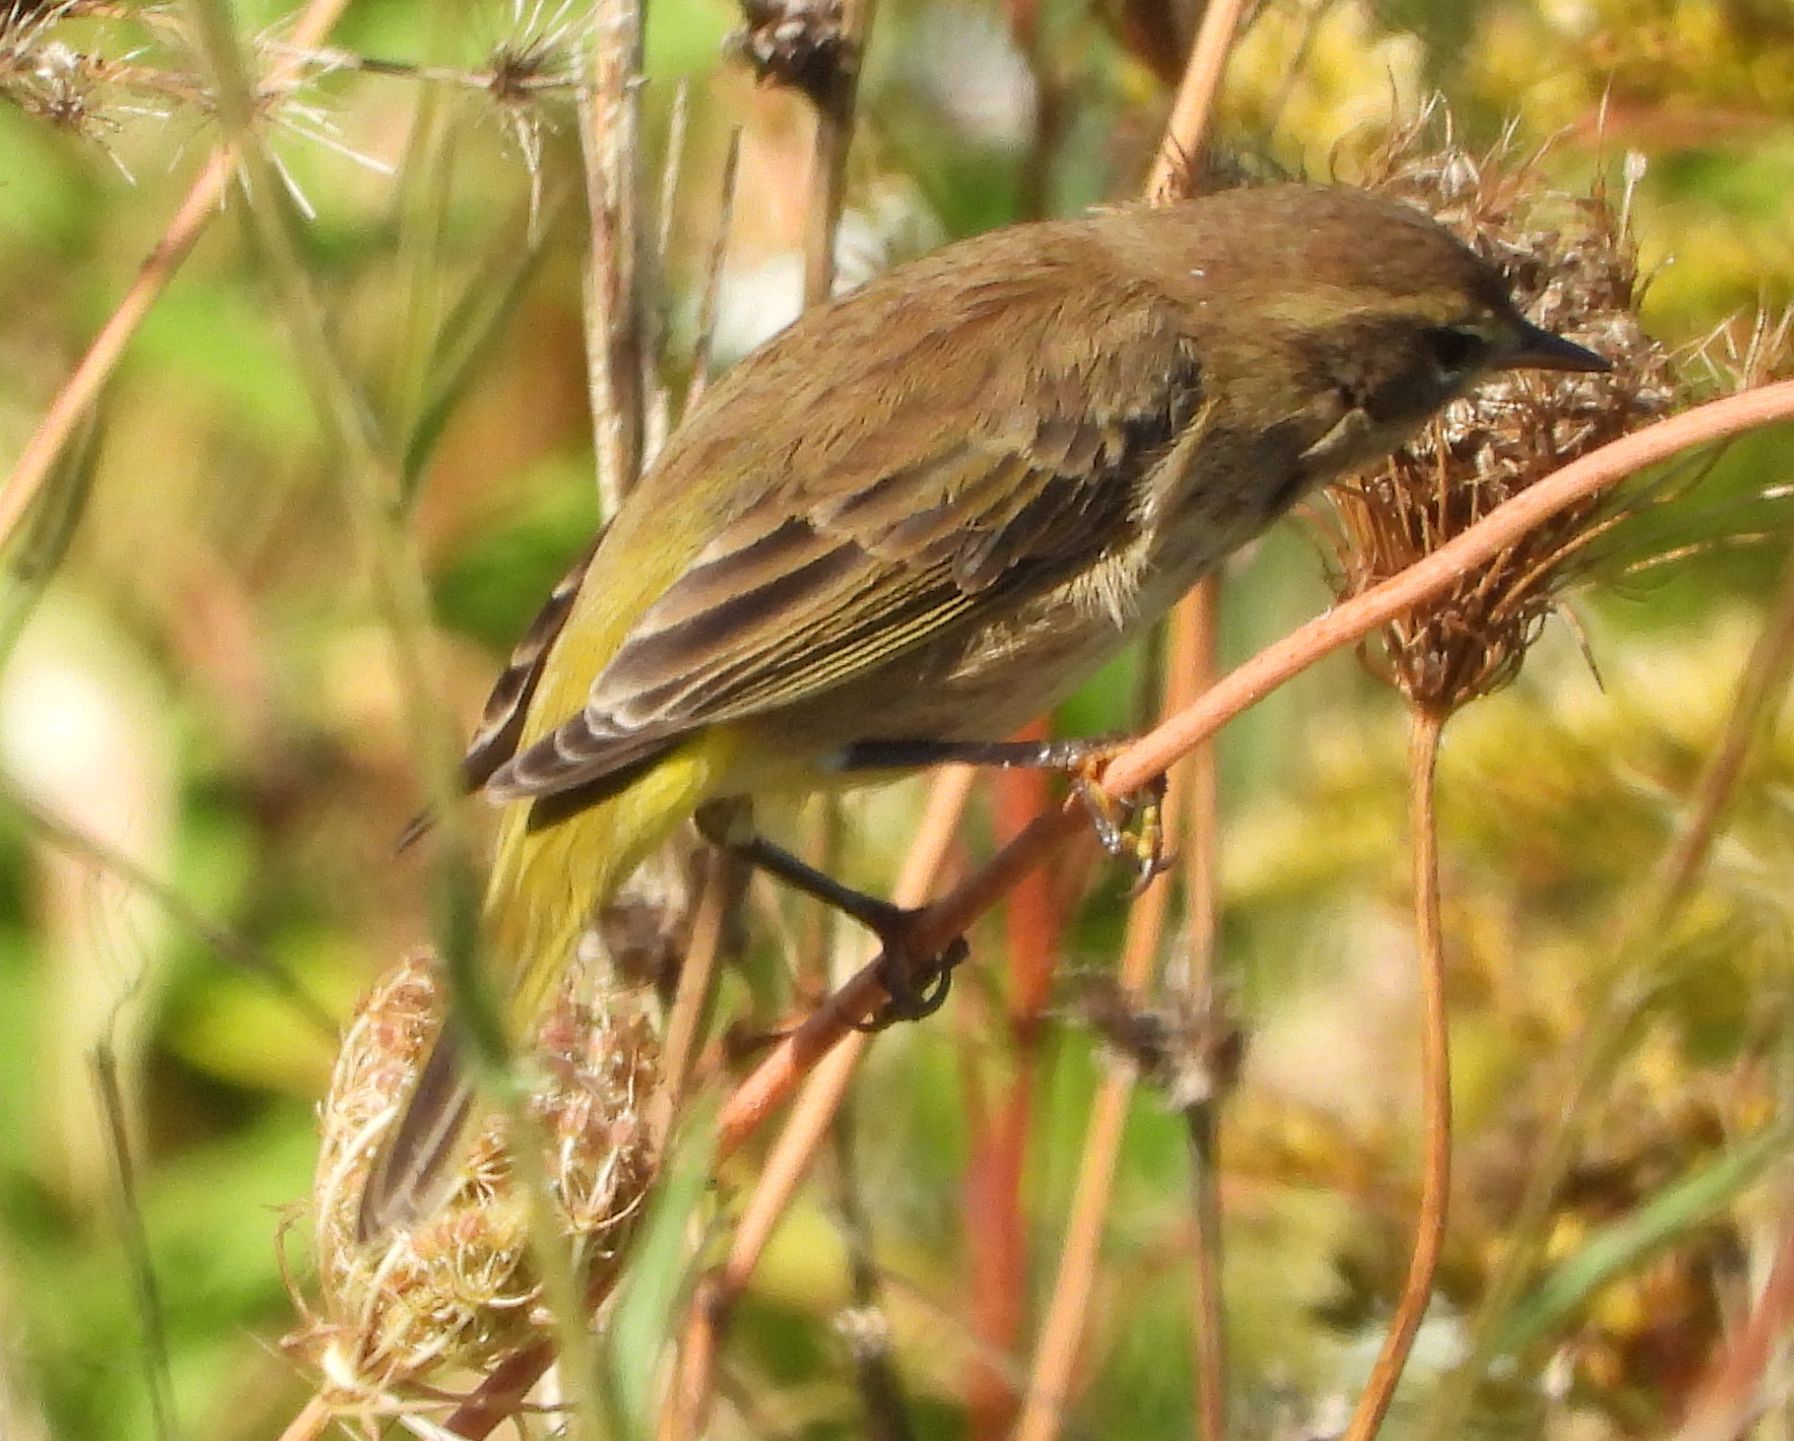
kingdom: Animalia
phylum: Chordata
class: Aves
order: Passeriformes
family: Parulidae
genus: Setophaga
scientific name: Setophaga palmarum
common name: Palm warbler
